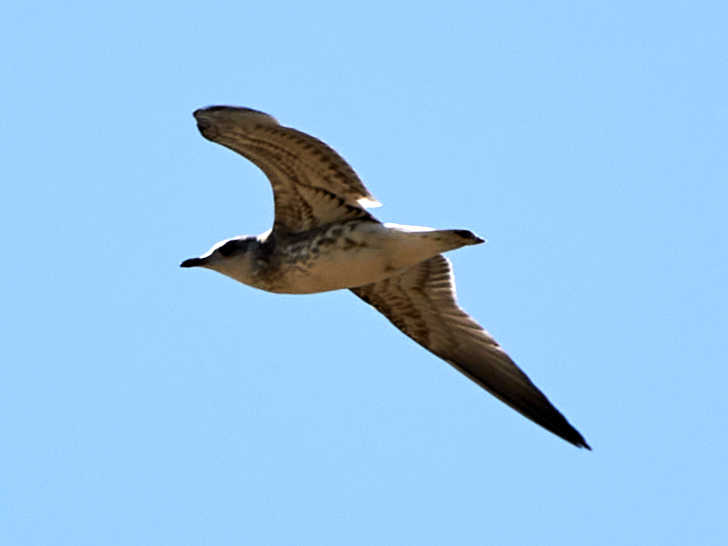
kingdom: Animalia
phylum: Chordata
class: Aves
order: Charadriiformes
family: Laridae
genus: Larus
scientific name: Larus canus
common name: Mew gull
